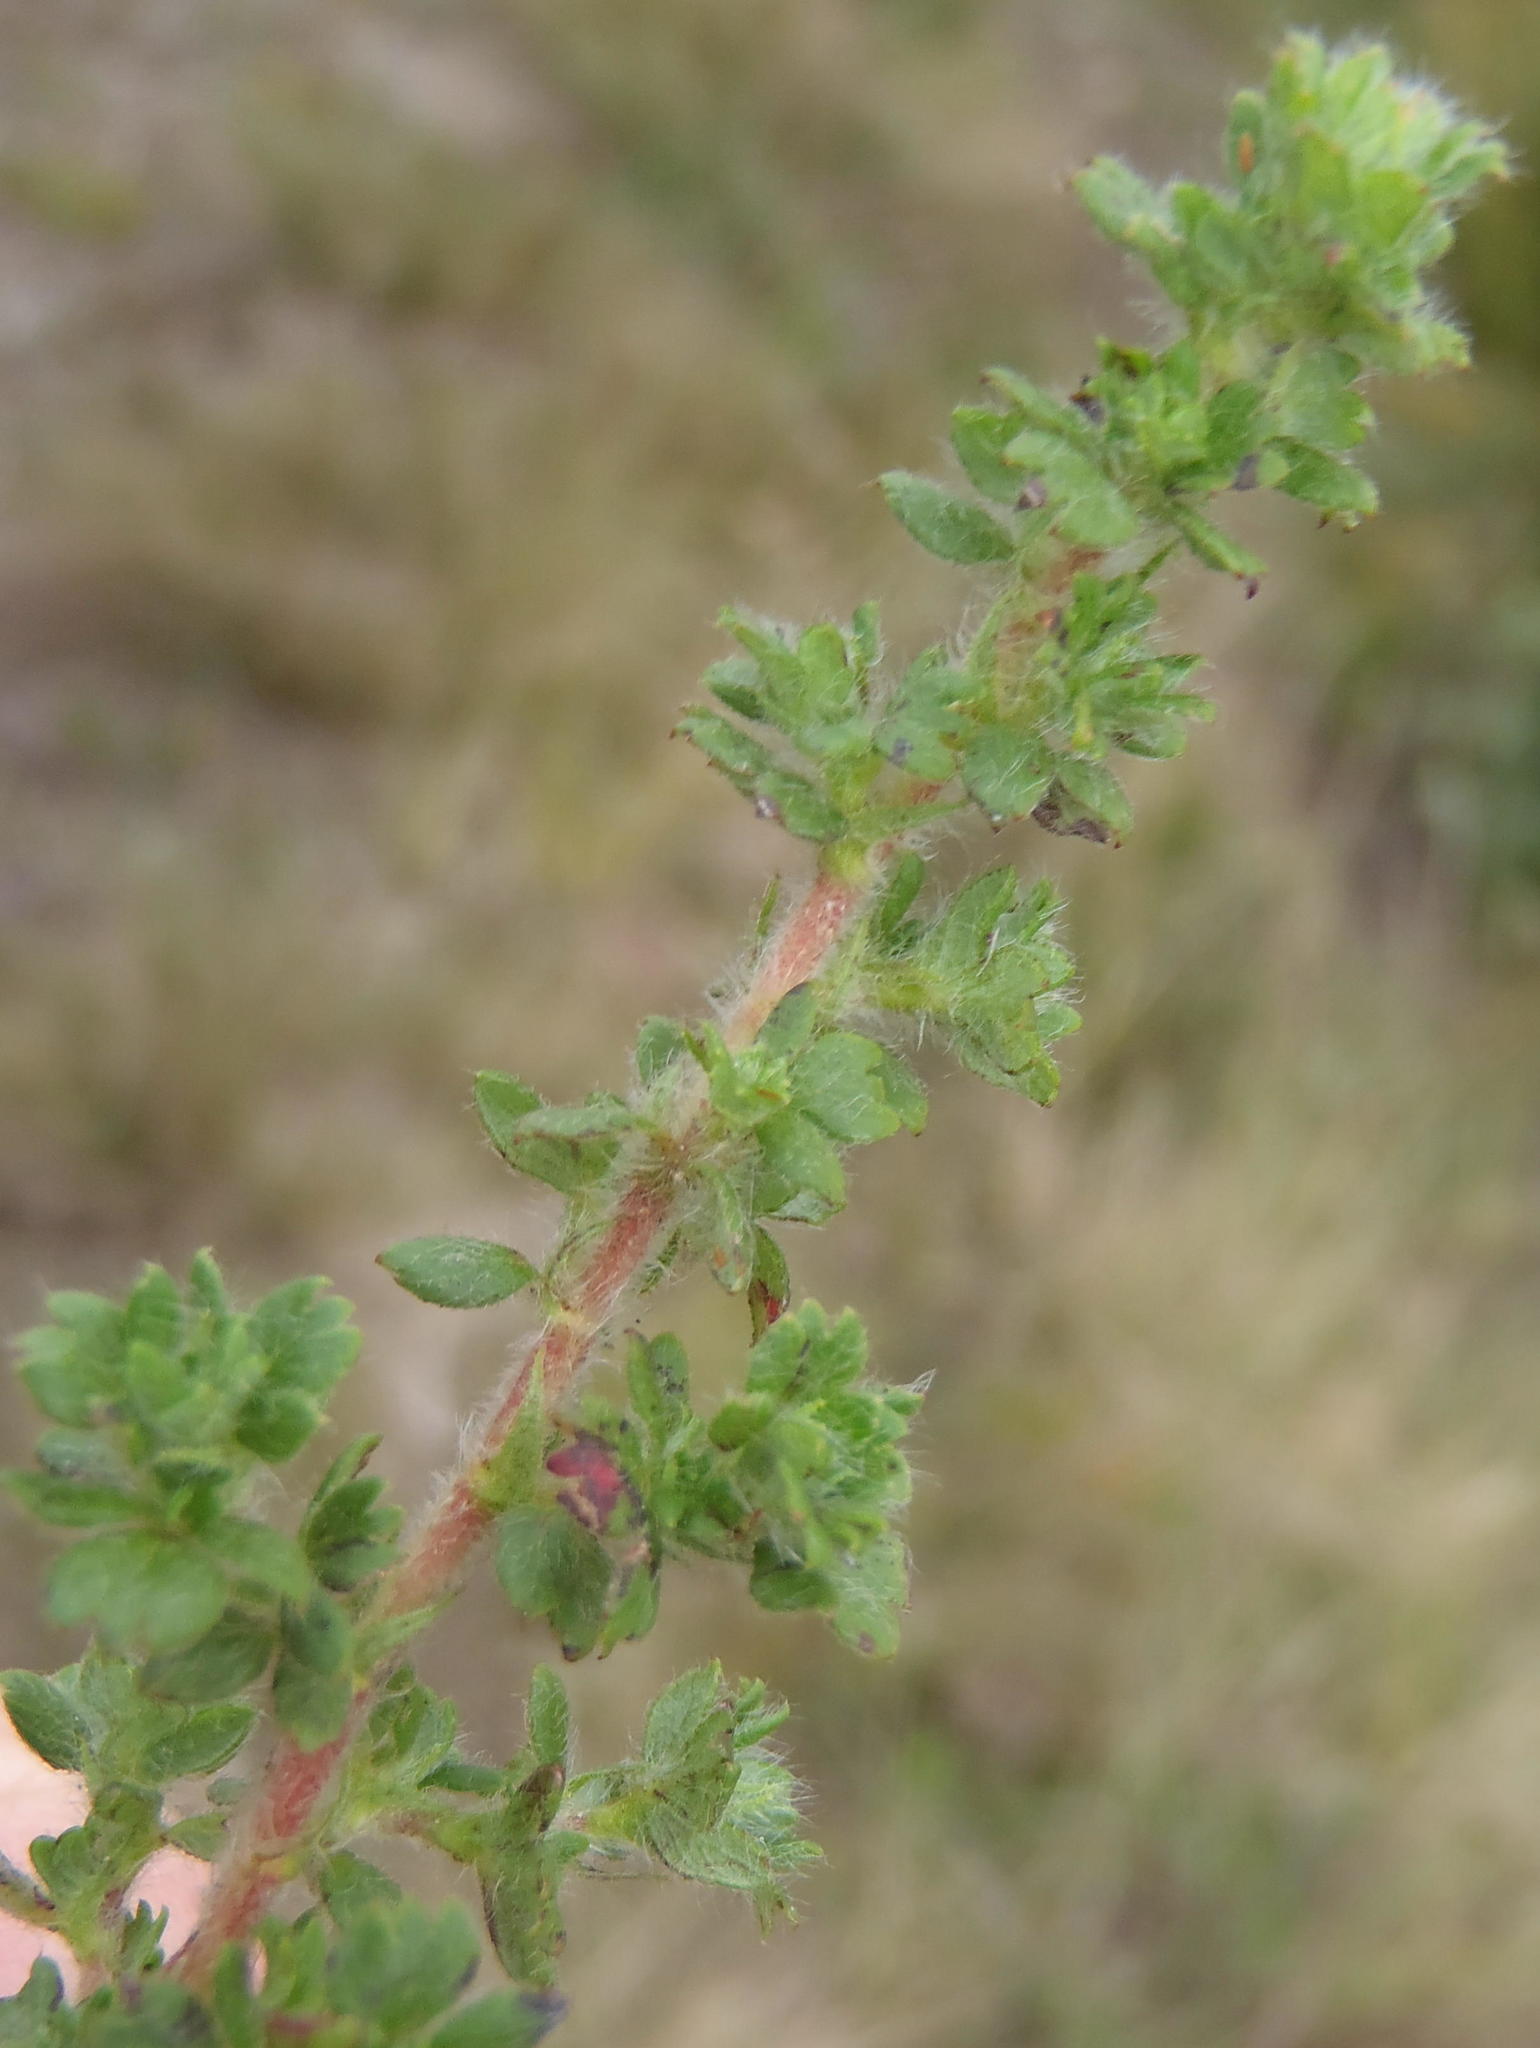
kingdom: Plantae
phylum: Tracheophyta
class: Magnoliopsida
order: Rosales
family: Rosaceae
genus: Cliffortia
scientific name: Cliffortia filicaulis
